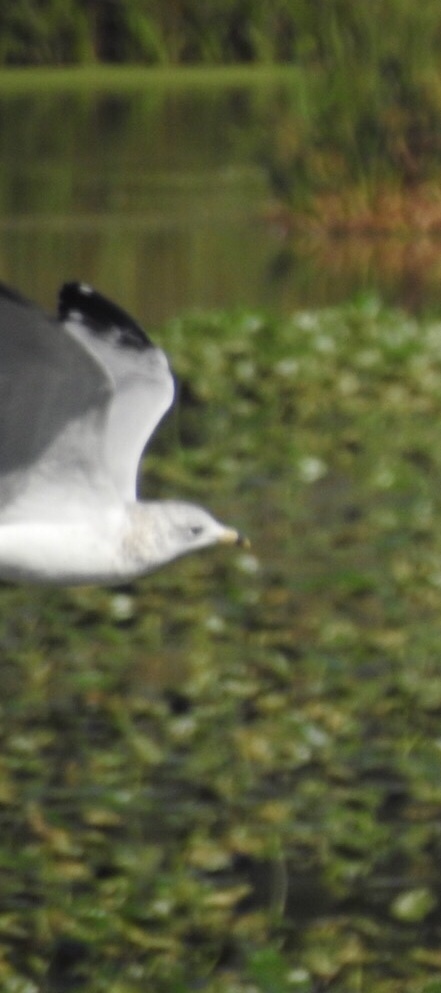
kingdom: Animalia
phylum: Chordata
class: Aves
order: Charadriiformes
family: Laridae
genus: Larus
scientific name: Larus delawarensis
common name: Ring-billed gull
